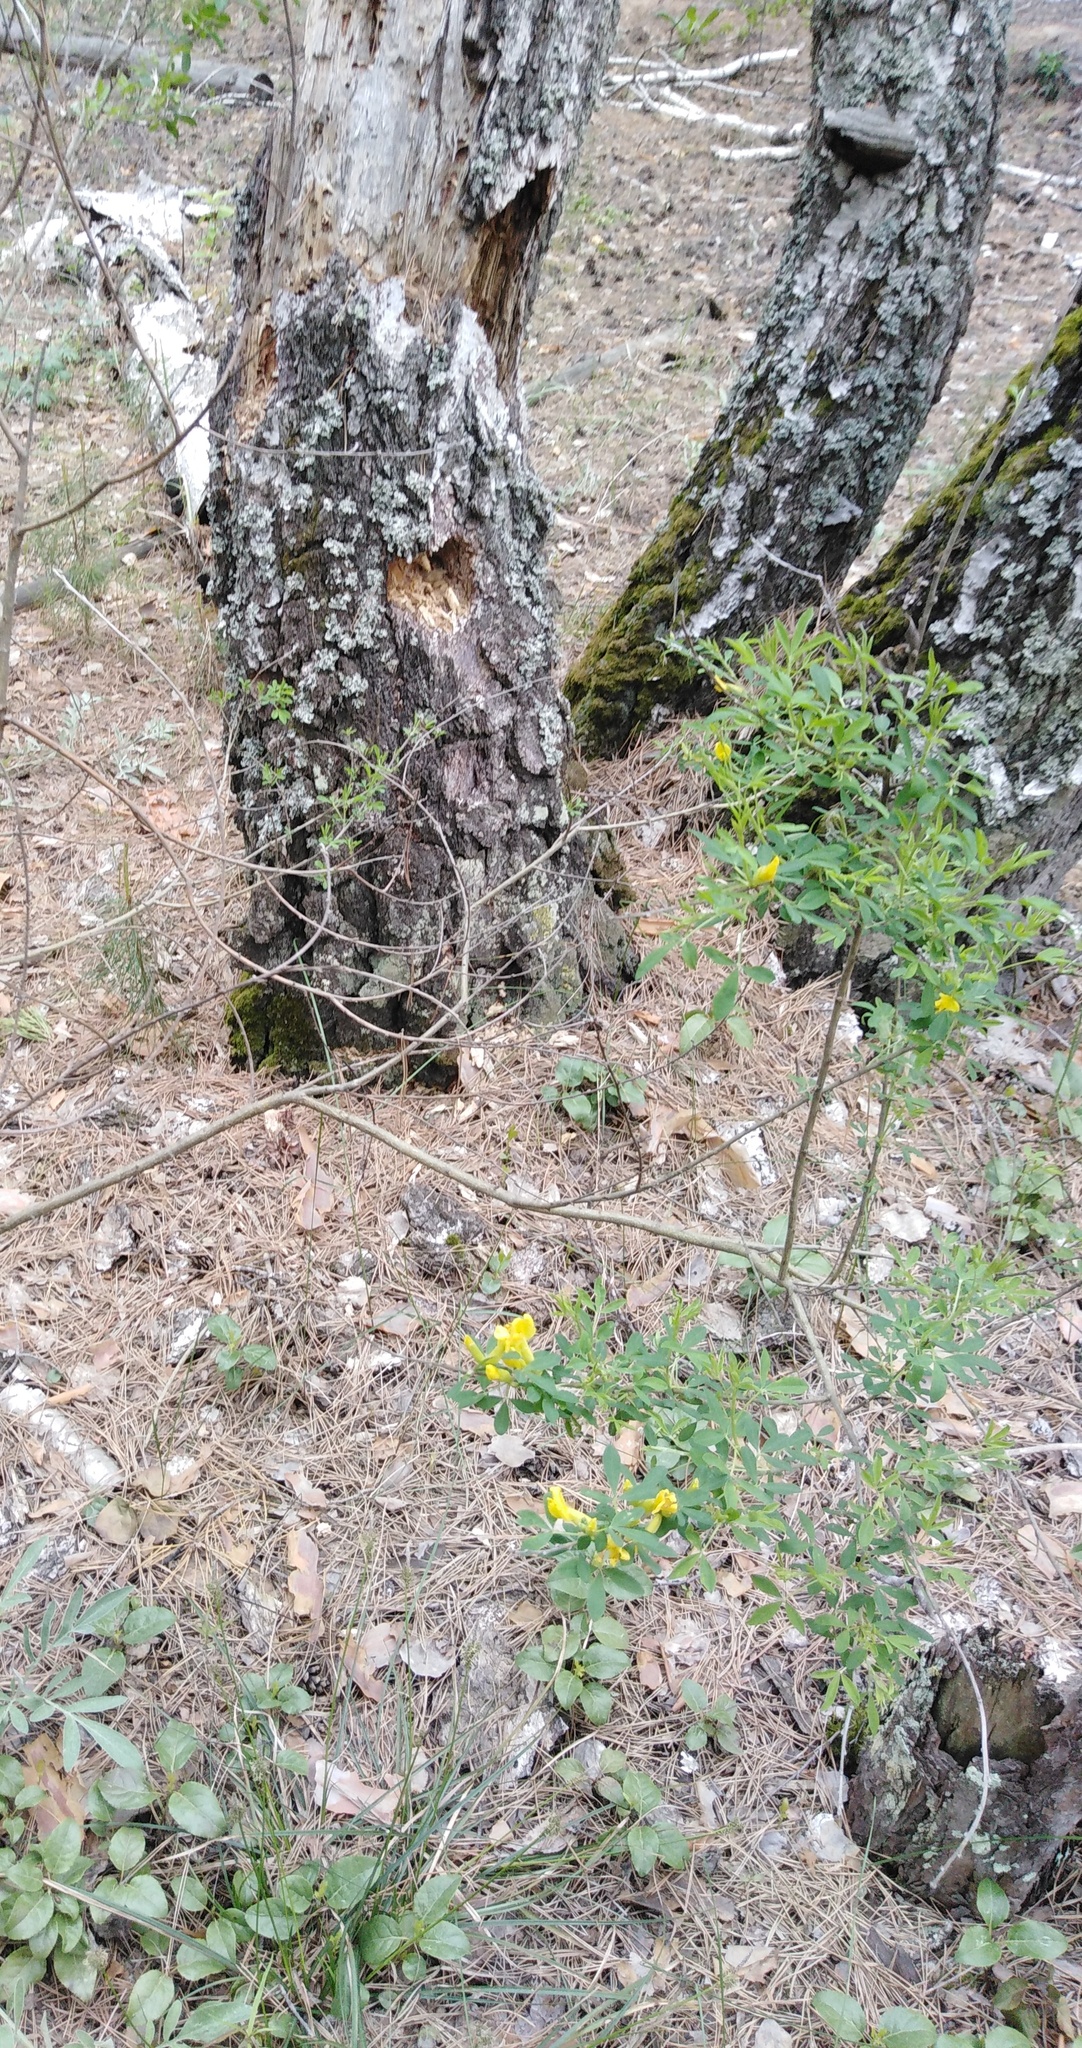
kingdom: Plantae
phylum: Tracheophyta
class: Magnoliopsida
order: Fabales
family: Fabaceae
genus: Chamaecytisus
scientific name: Chamaecytisus ruthenicus
